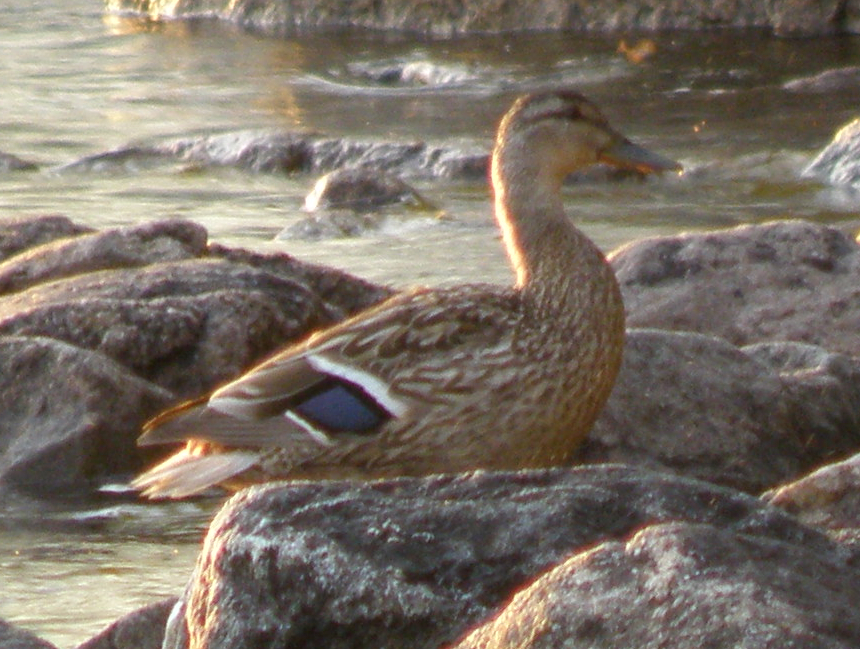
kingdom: Animalia
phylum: Chordata
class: Aves
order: Anseriformes
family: Anatidae
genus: Anas
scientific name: Anas platyrhynchos
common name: Mallard
